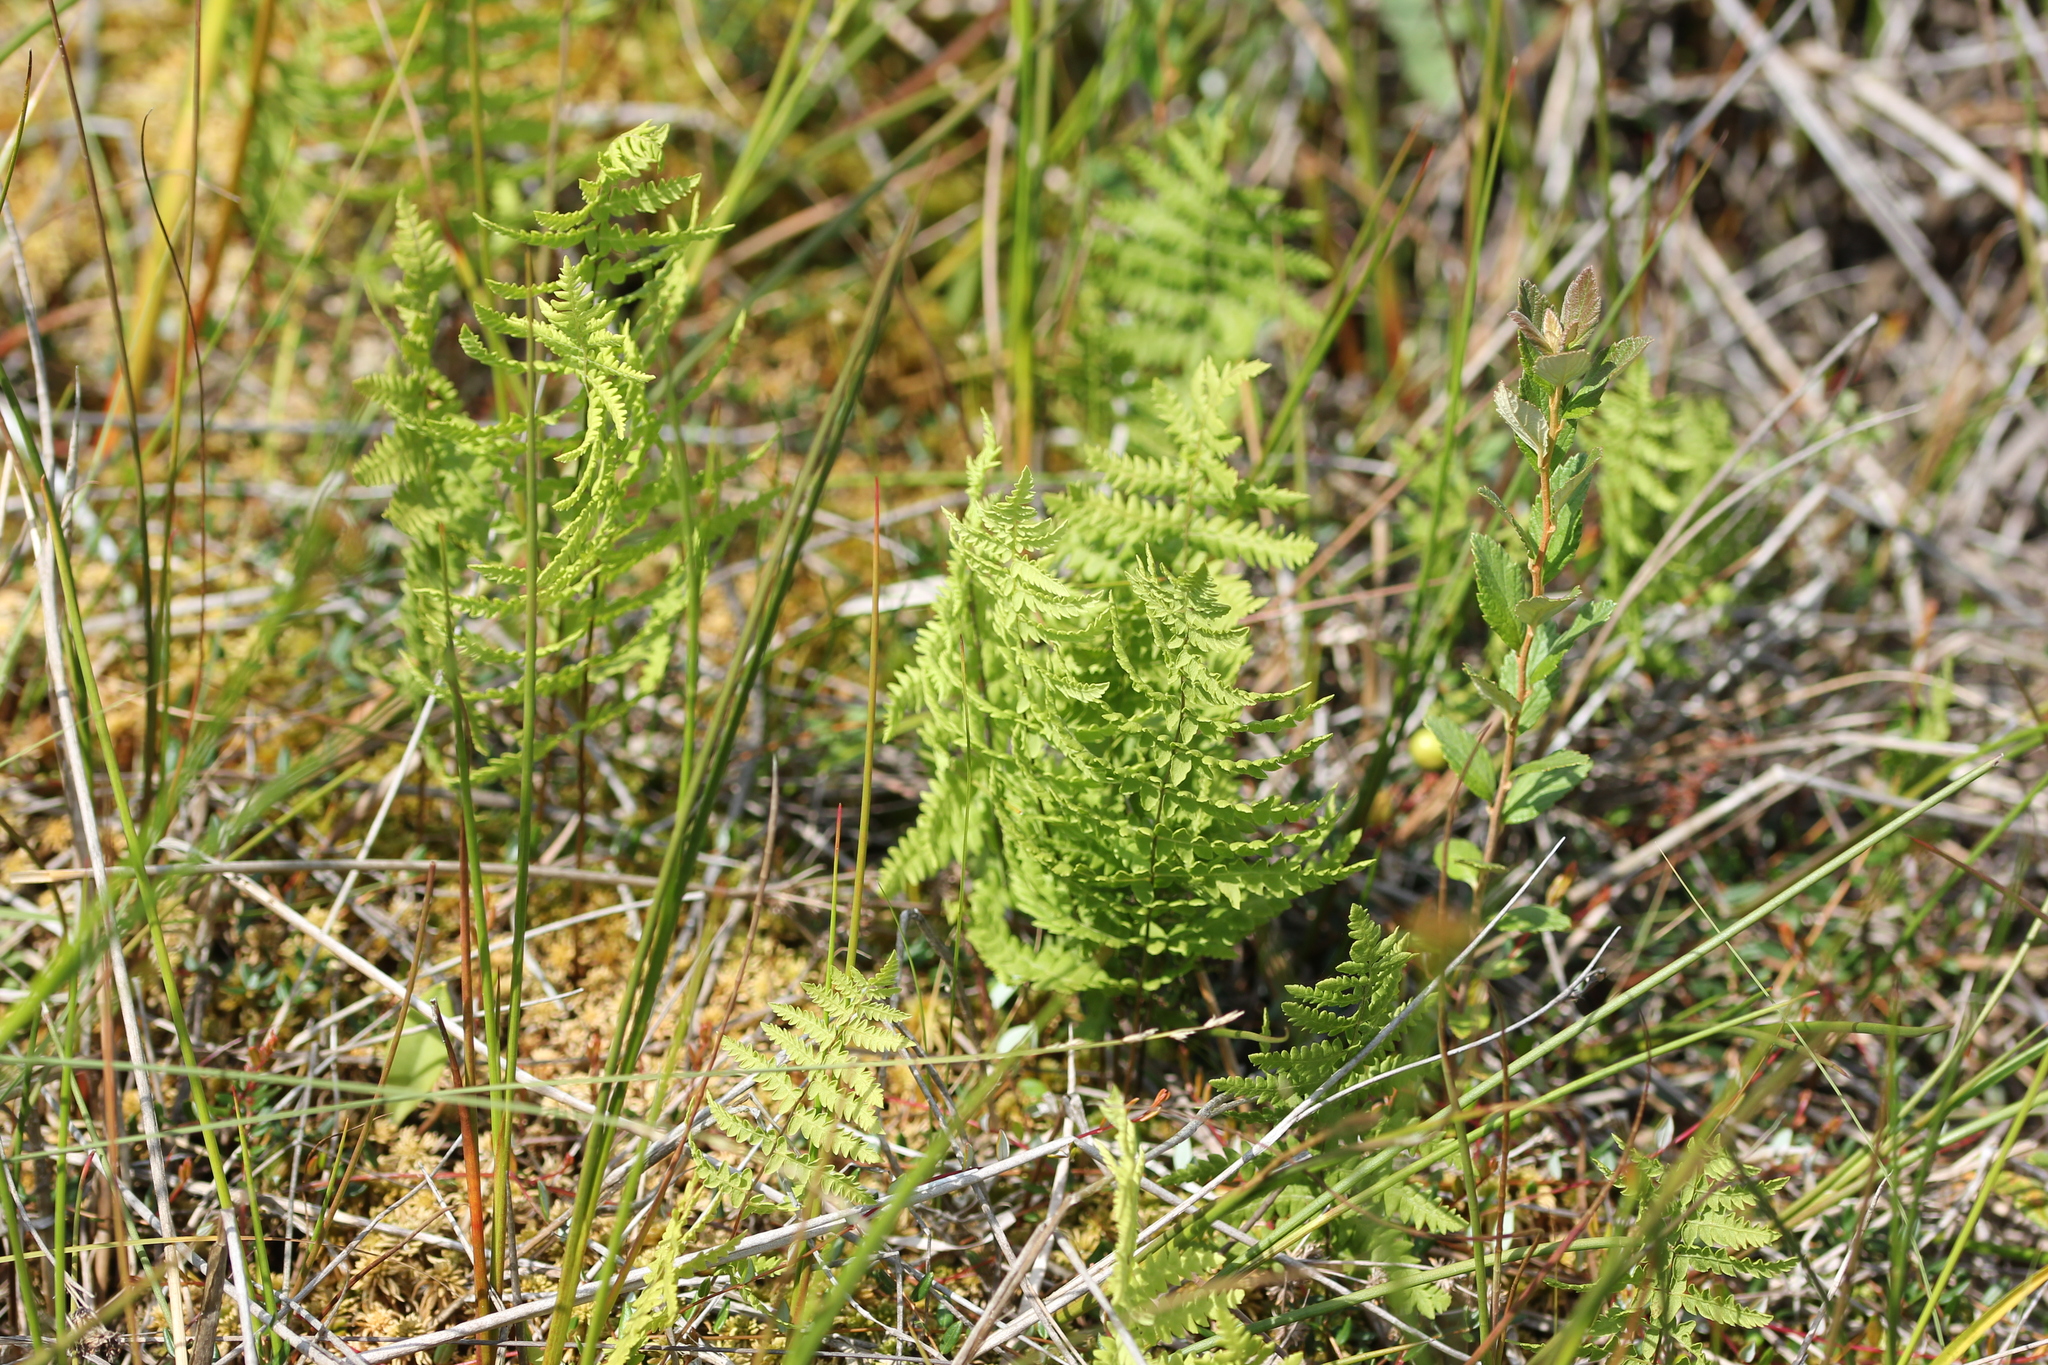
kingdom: Plantae
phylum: Tracheophyta
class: Polypodiopsida
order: Polypodiales
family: Thelypteridaceae
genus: Thelypteris
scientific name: Thelypteris palustris
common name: Marsh fern
